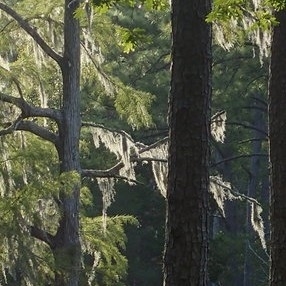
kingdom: Plantae
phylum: Tracheophyta
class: Liliopsida
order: Poales
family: Bromeliaceae
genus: Tillandsia
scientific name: Tillandsia usneoides
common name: Spanish moss
